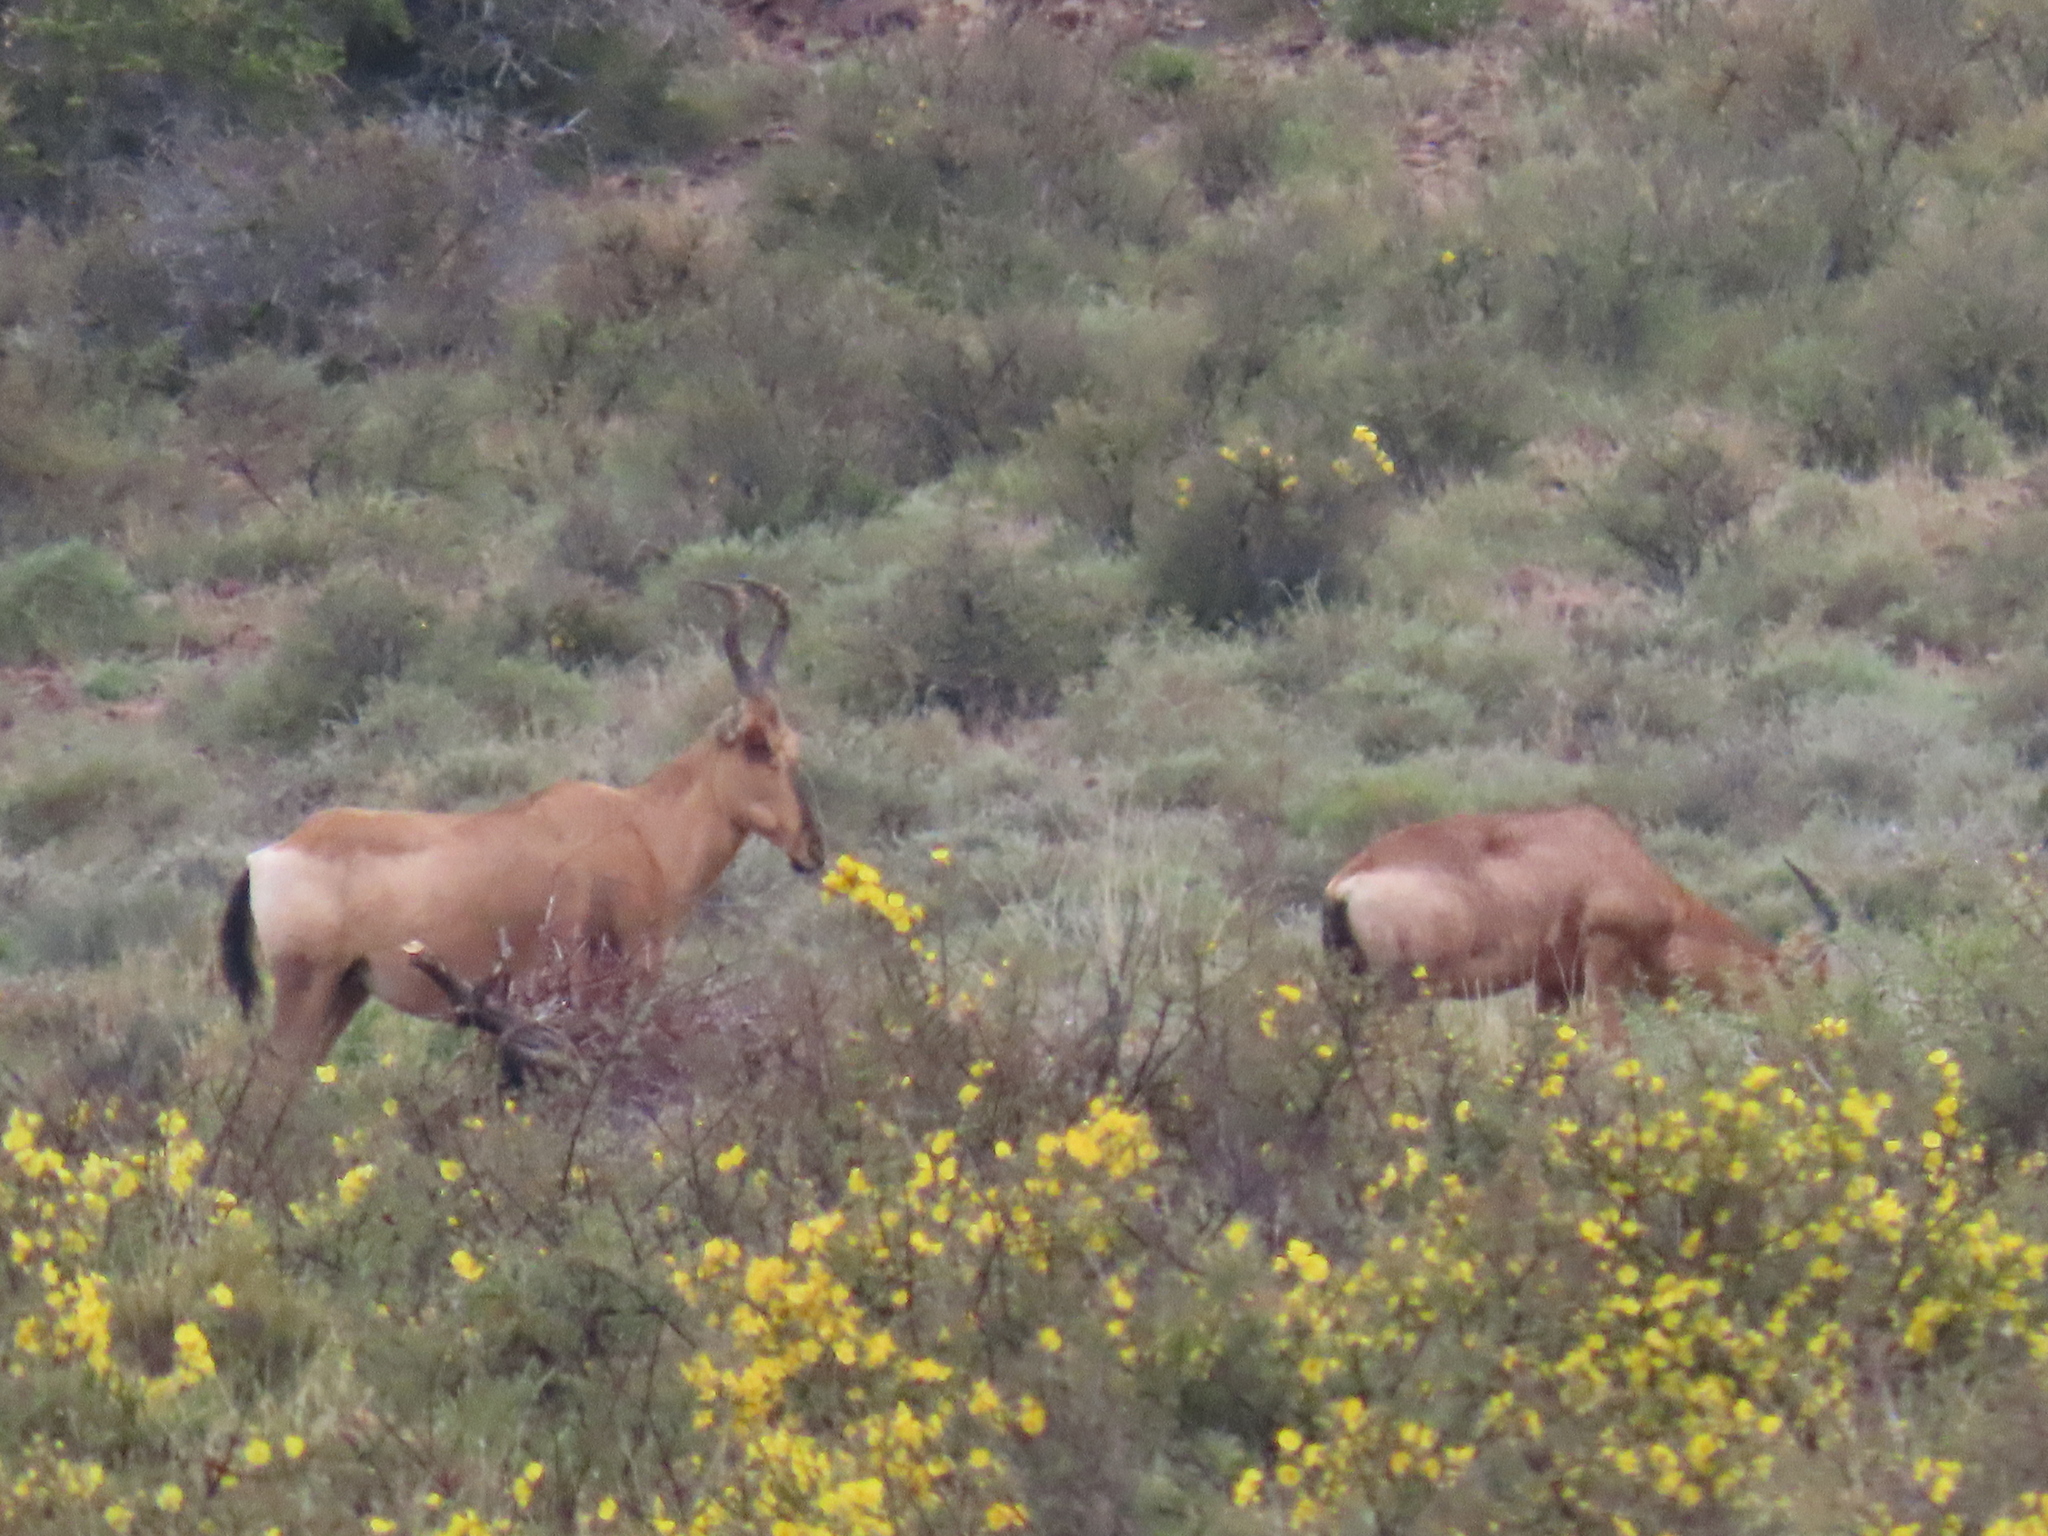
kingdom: Animalia
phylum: Chordata
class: Mammalia
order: Artiodactyla
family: Bovidae
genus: Alcelaphus
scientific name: Alcelaphus caama
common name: Red hartebeest
